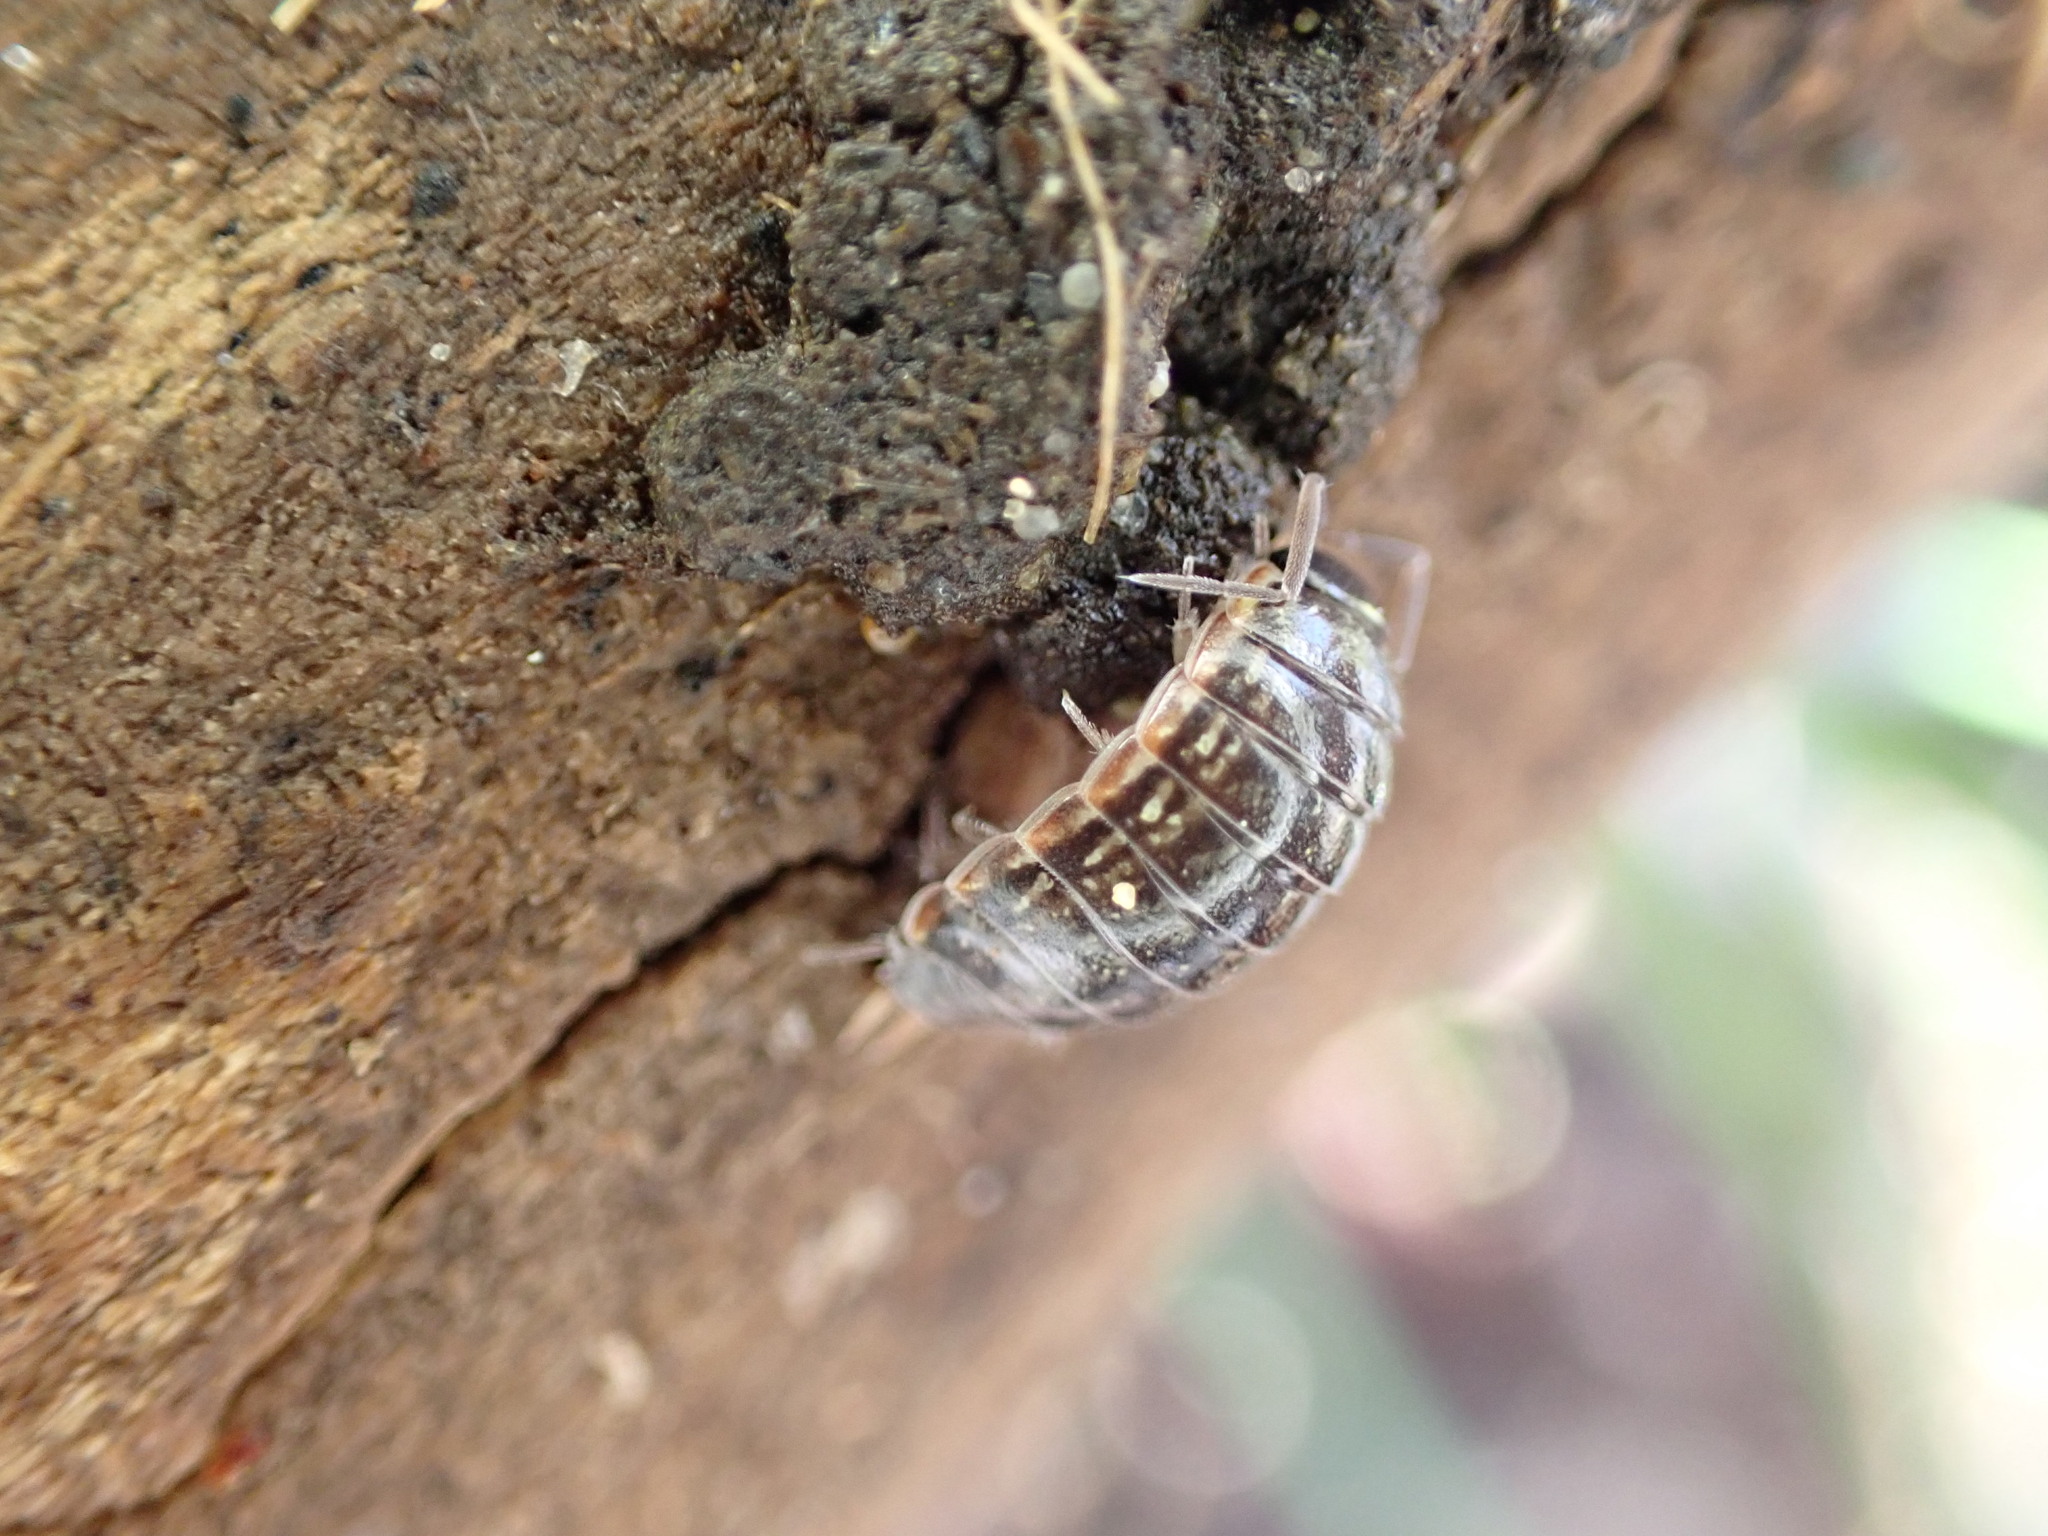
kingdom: Animalia
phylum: Arthropoda
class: Malacostraca
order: Isopoda
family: Philosciidae
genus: Philoscia
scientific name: Philoscia muscorum
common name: Common striped woodlouse
